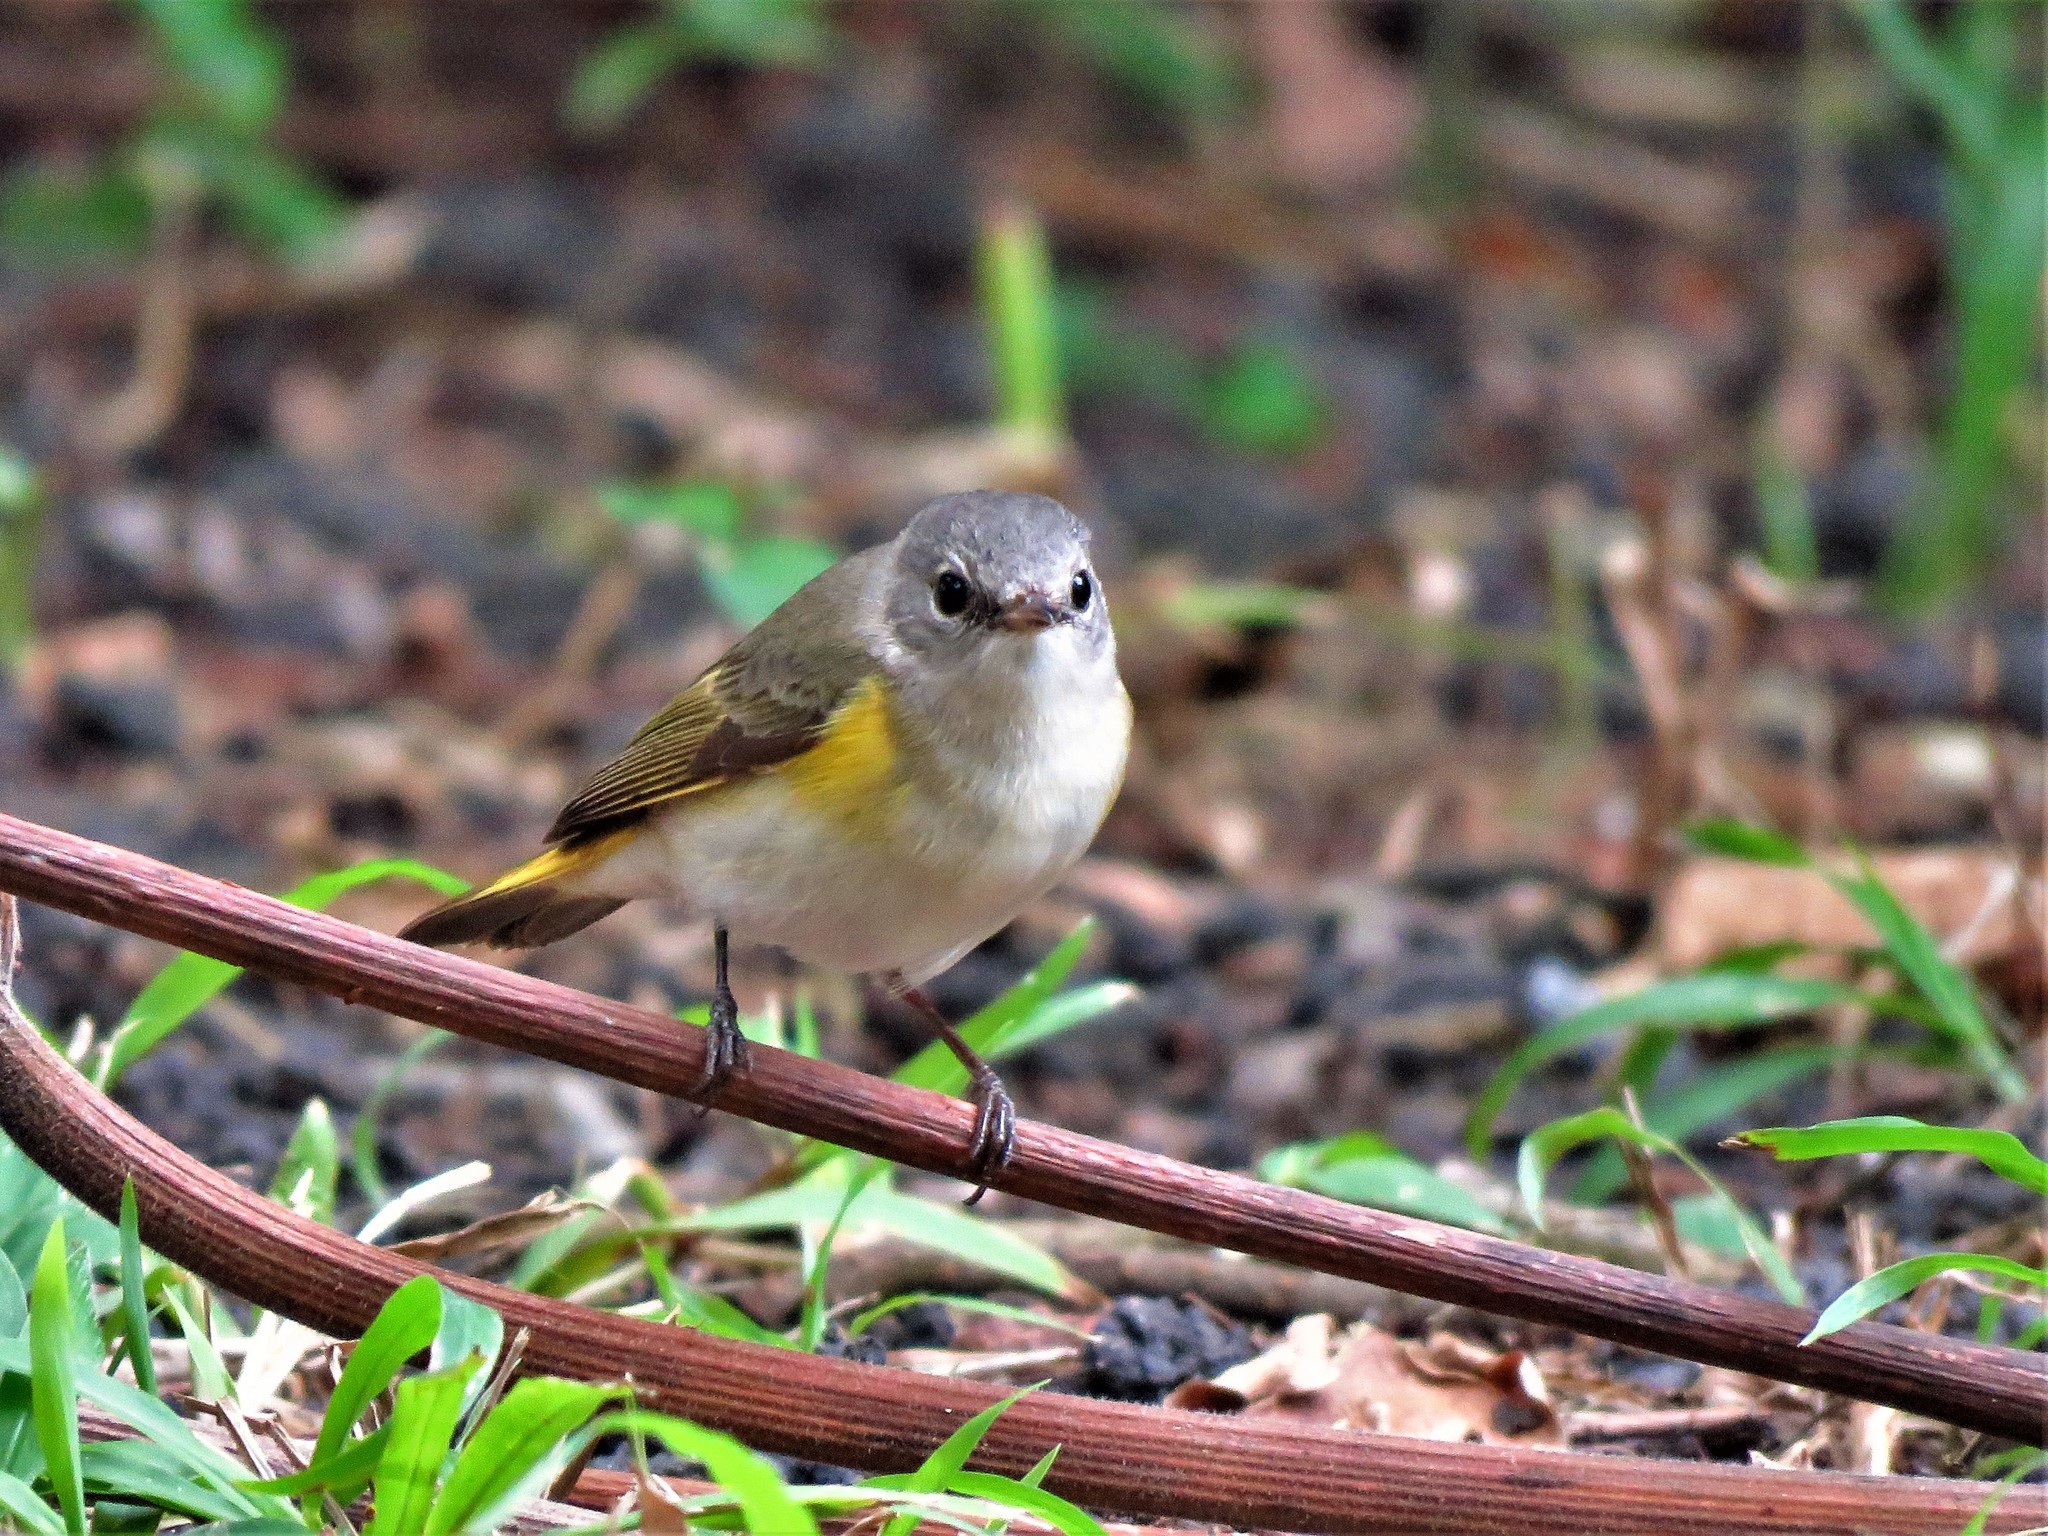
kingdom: Animalia
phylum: Chordata
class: Aves
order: Passeriformes
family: Parulidae
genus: Setophaga
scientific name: Setophaga ruticilla
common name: American redstart
